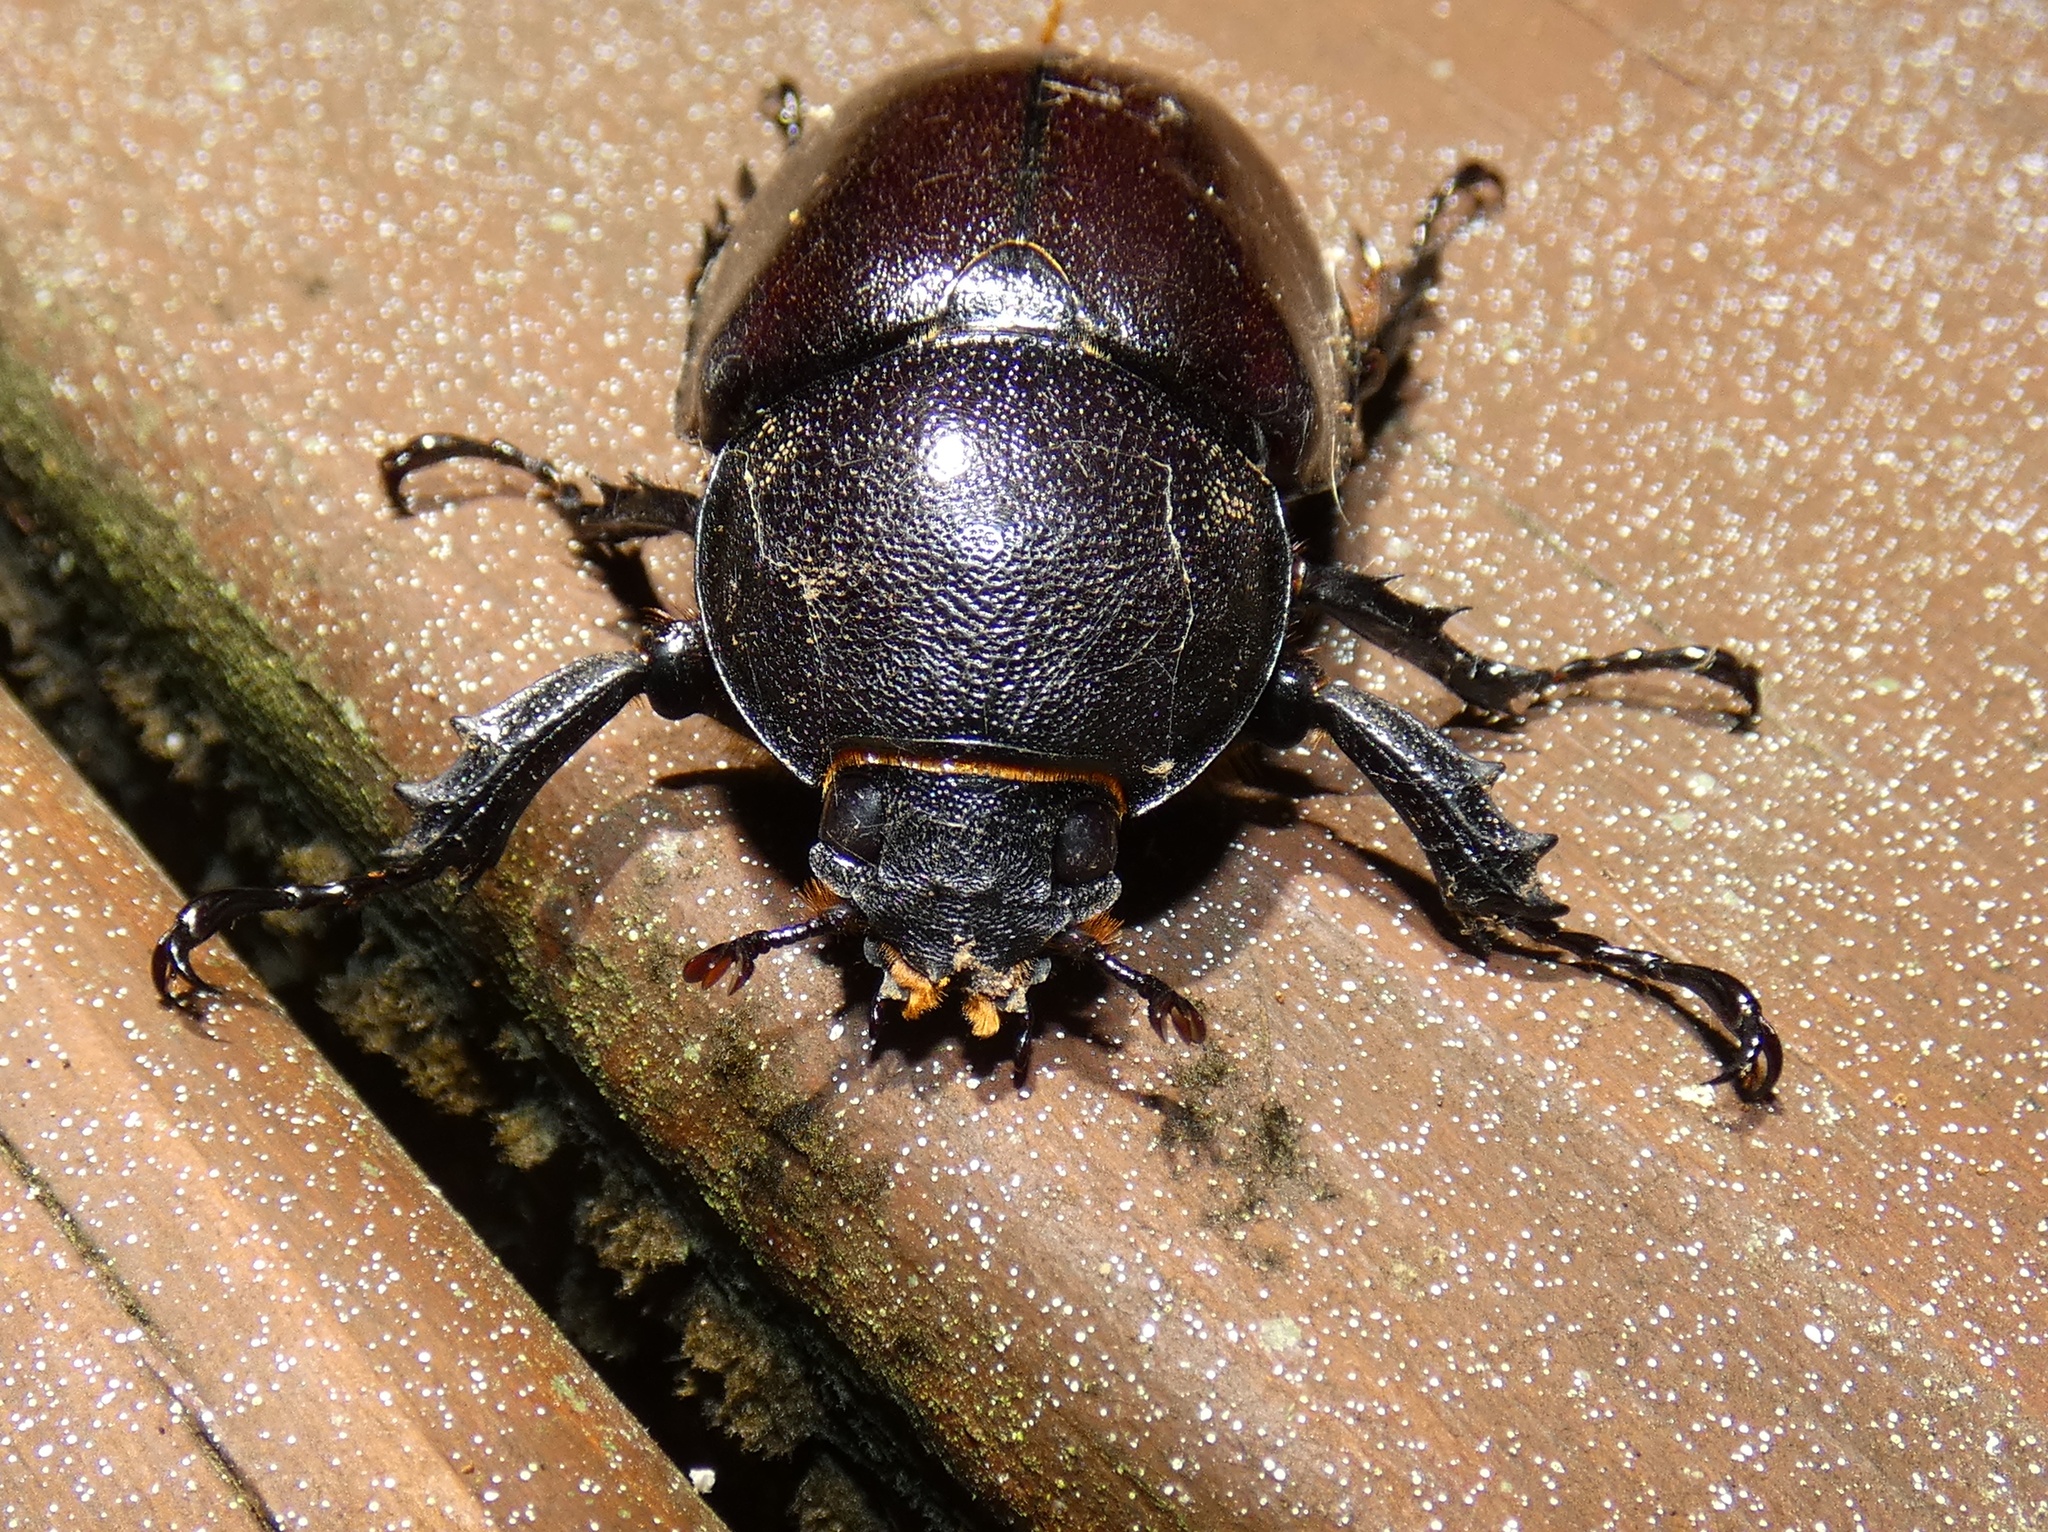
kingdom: Animalia
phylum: Arthropoda
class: Insecta
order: Coleoptera
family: Scarabaeidae
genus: Xylotrupes
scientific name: Xylotrupes australicus
